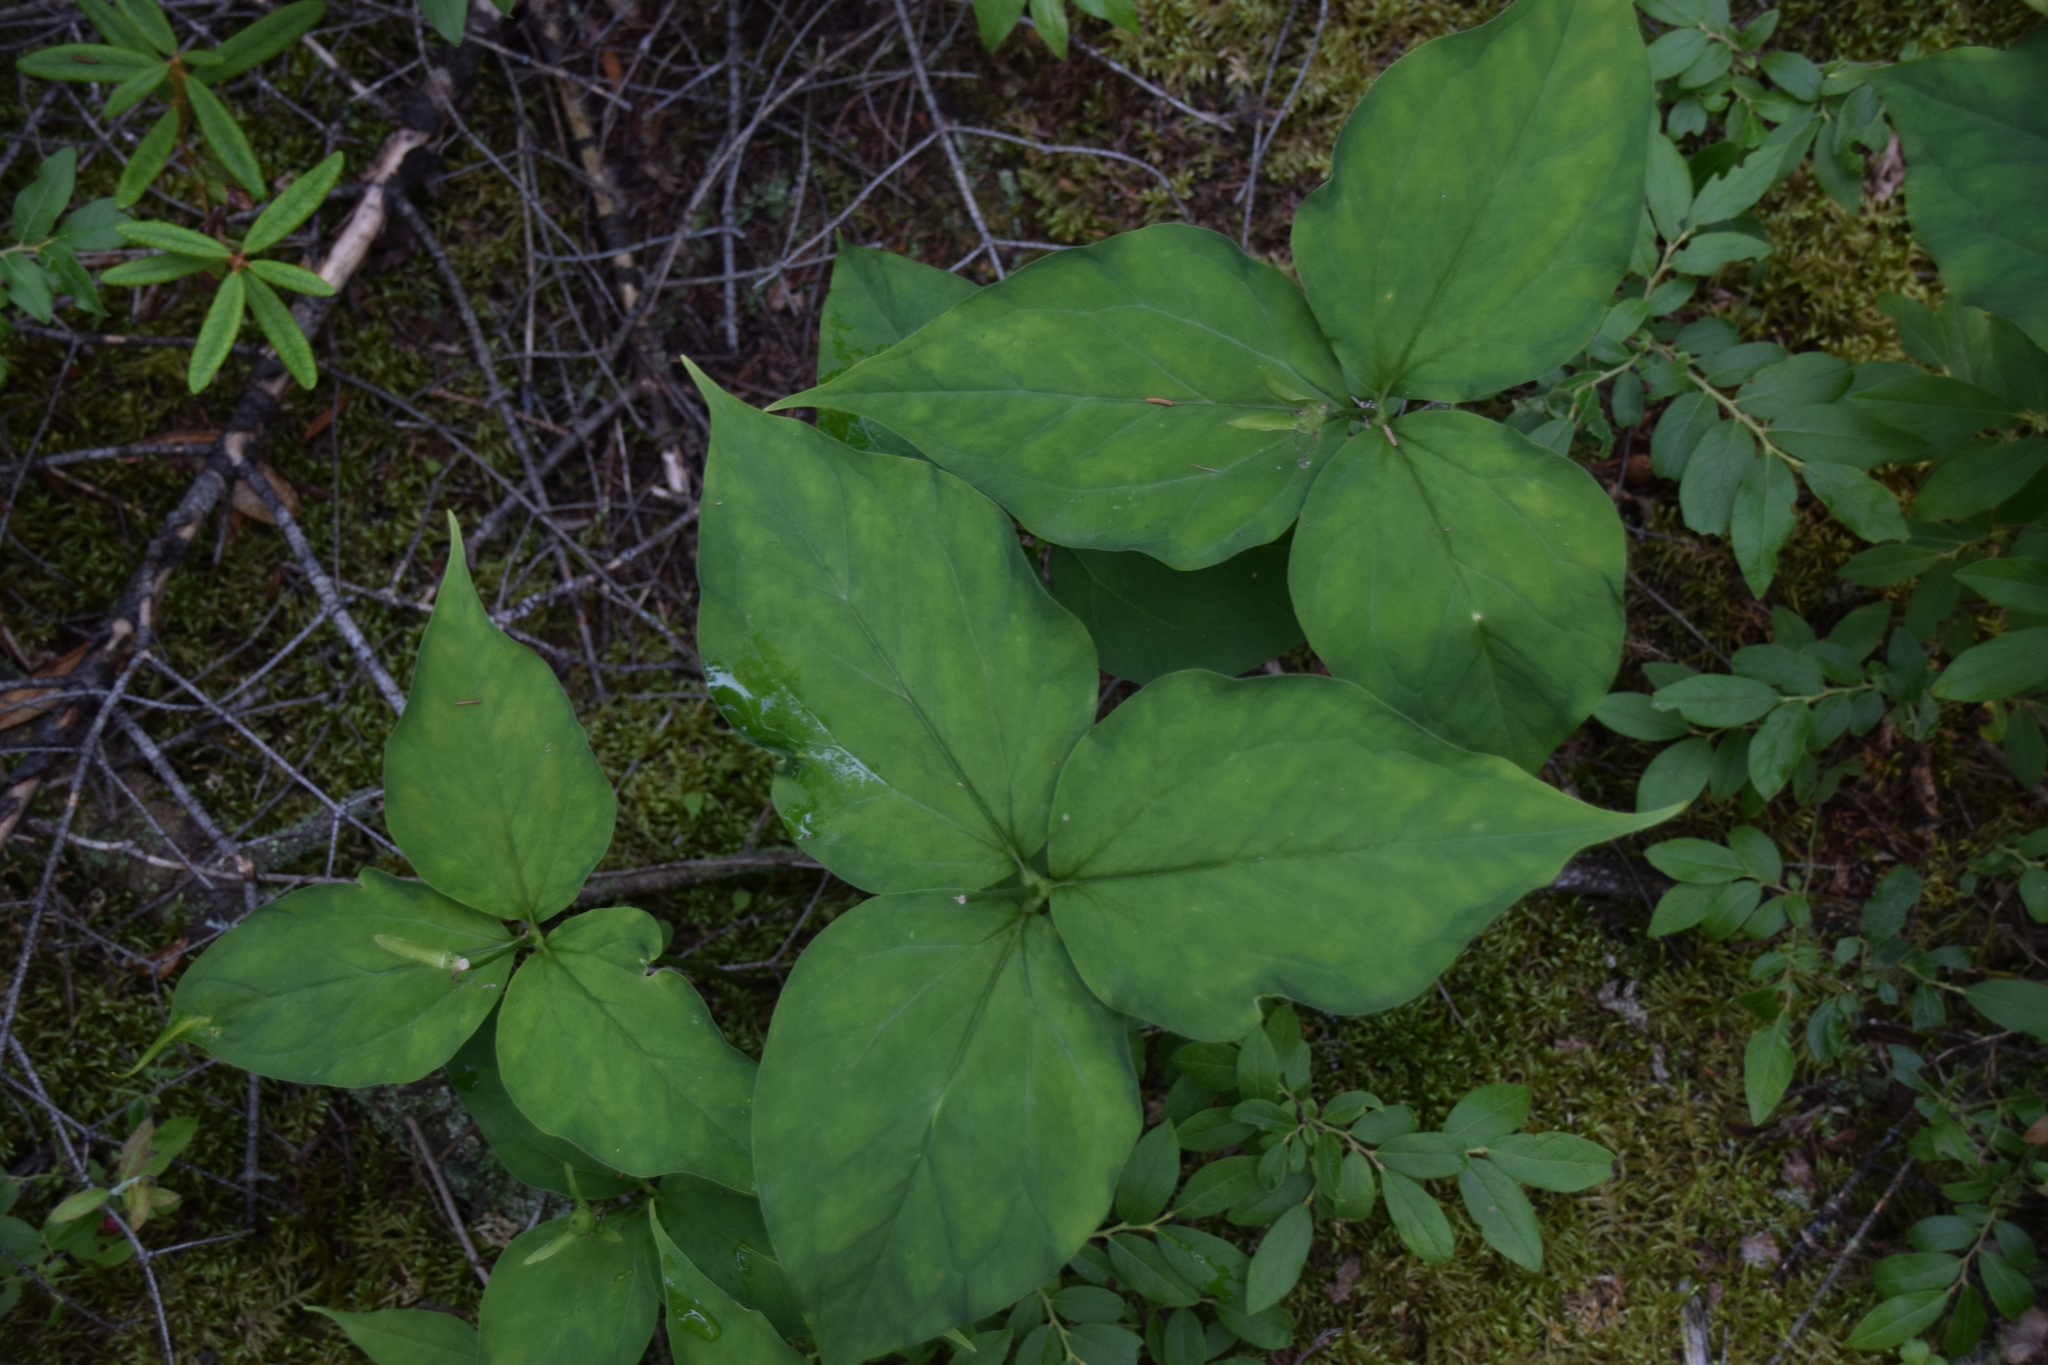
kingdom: Plantae
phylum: Tracheophyta
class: Liliopsida
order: Liliales
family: Melanthiaceae
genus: Trillium
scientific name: Trillium undulatum
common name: Paint trillium
